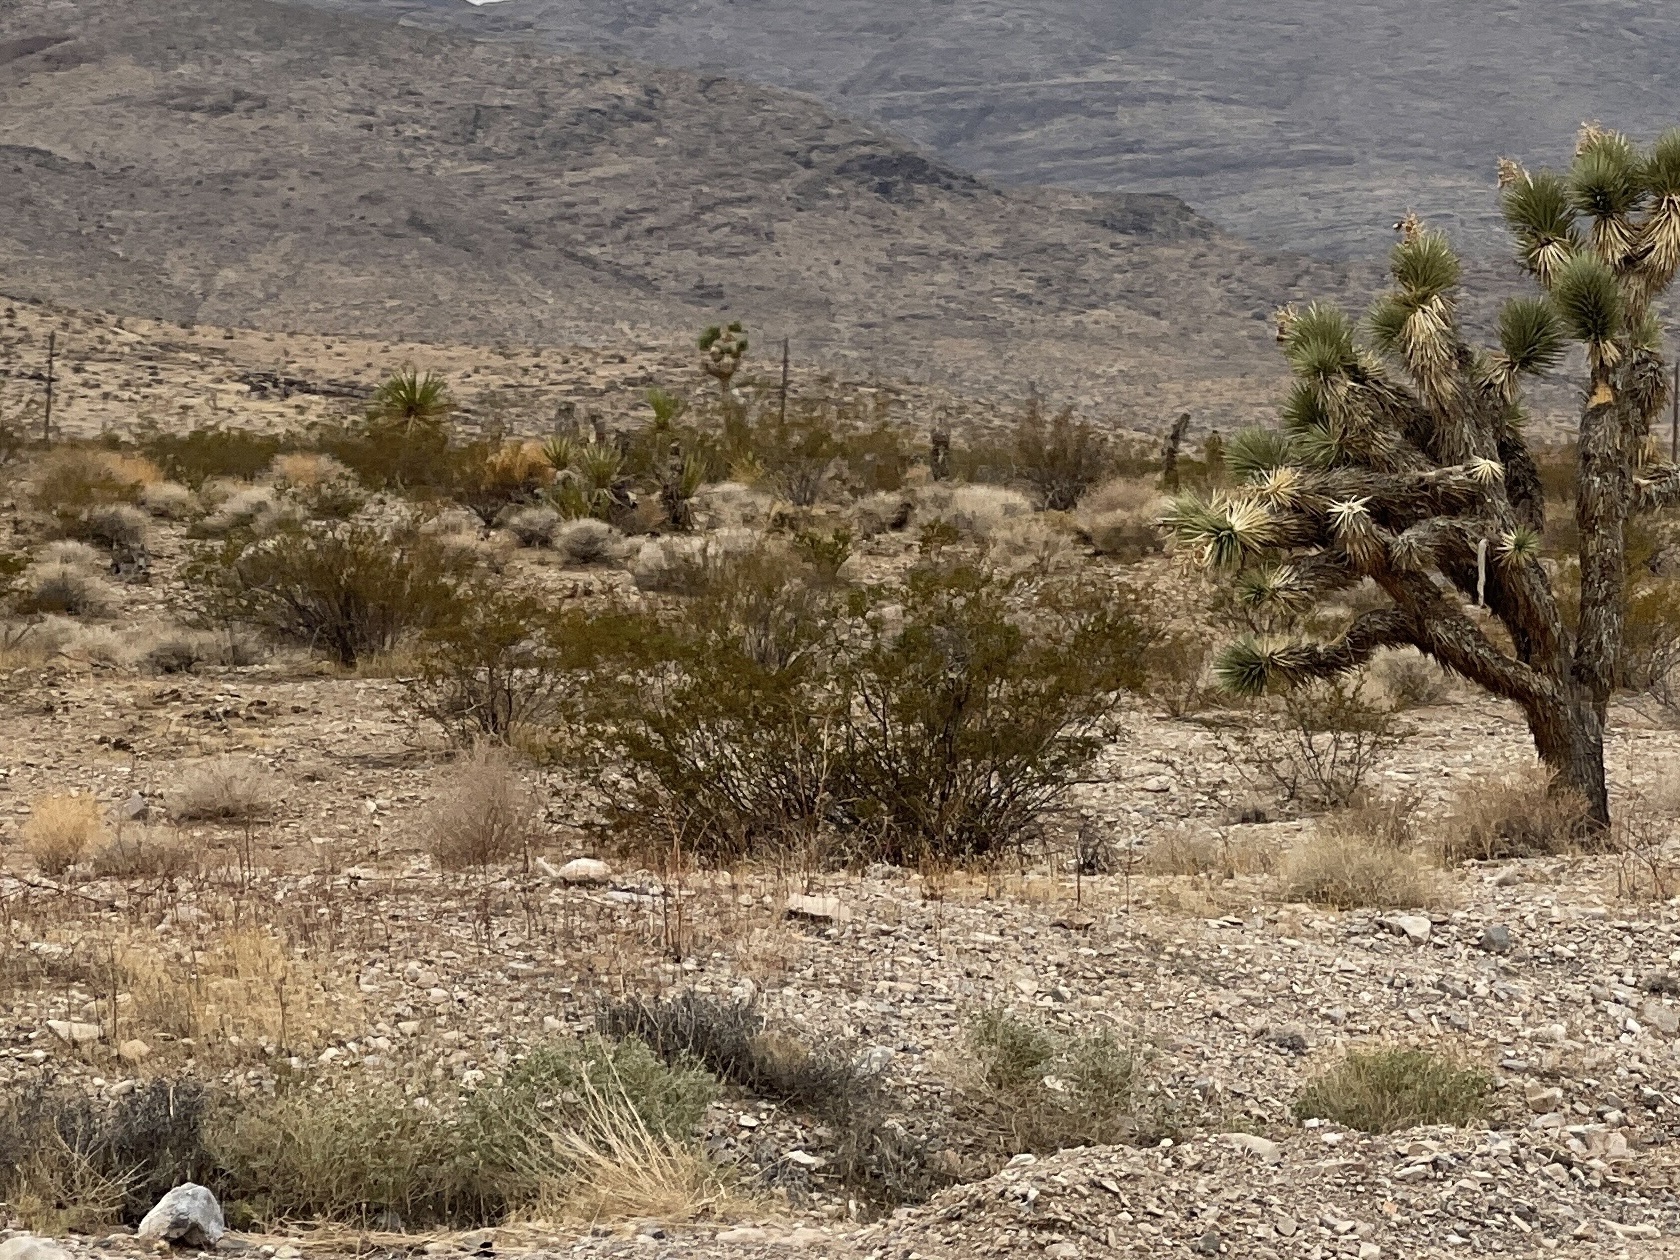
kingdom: Plantae
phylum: Tracheophyta
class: Magnoliopsida
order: Zygophyllales
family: Zygophyllaceae
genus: Larrea
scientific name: Larrea tridentata
